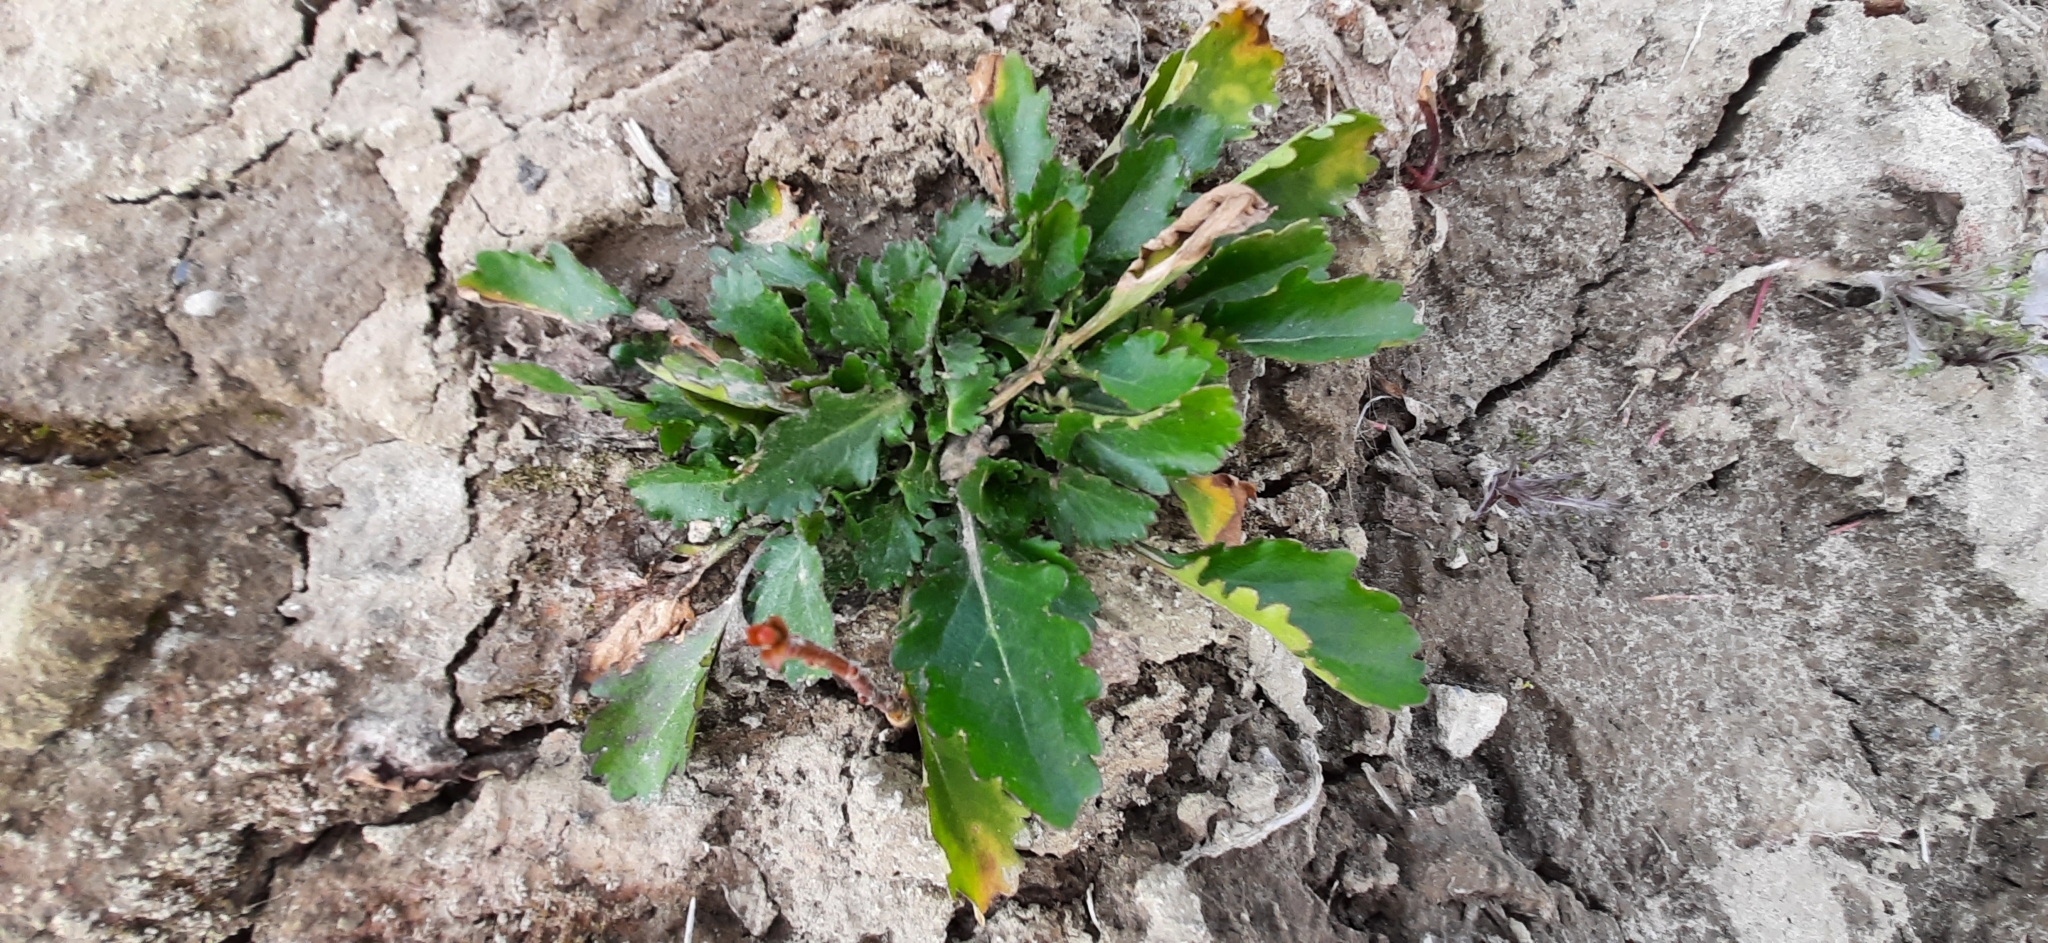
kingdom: Plantae
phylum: Tracheophyta
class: Magnoliopsida
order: Asterales
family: Asteraceae
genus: Leucanthemum
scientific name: Leucanthemum ircutianum
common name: Daisy
